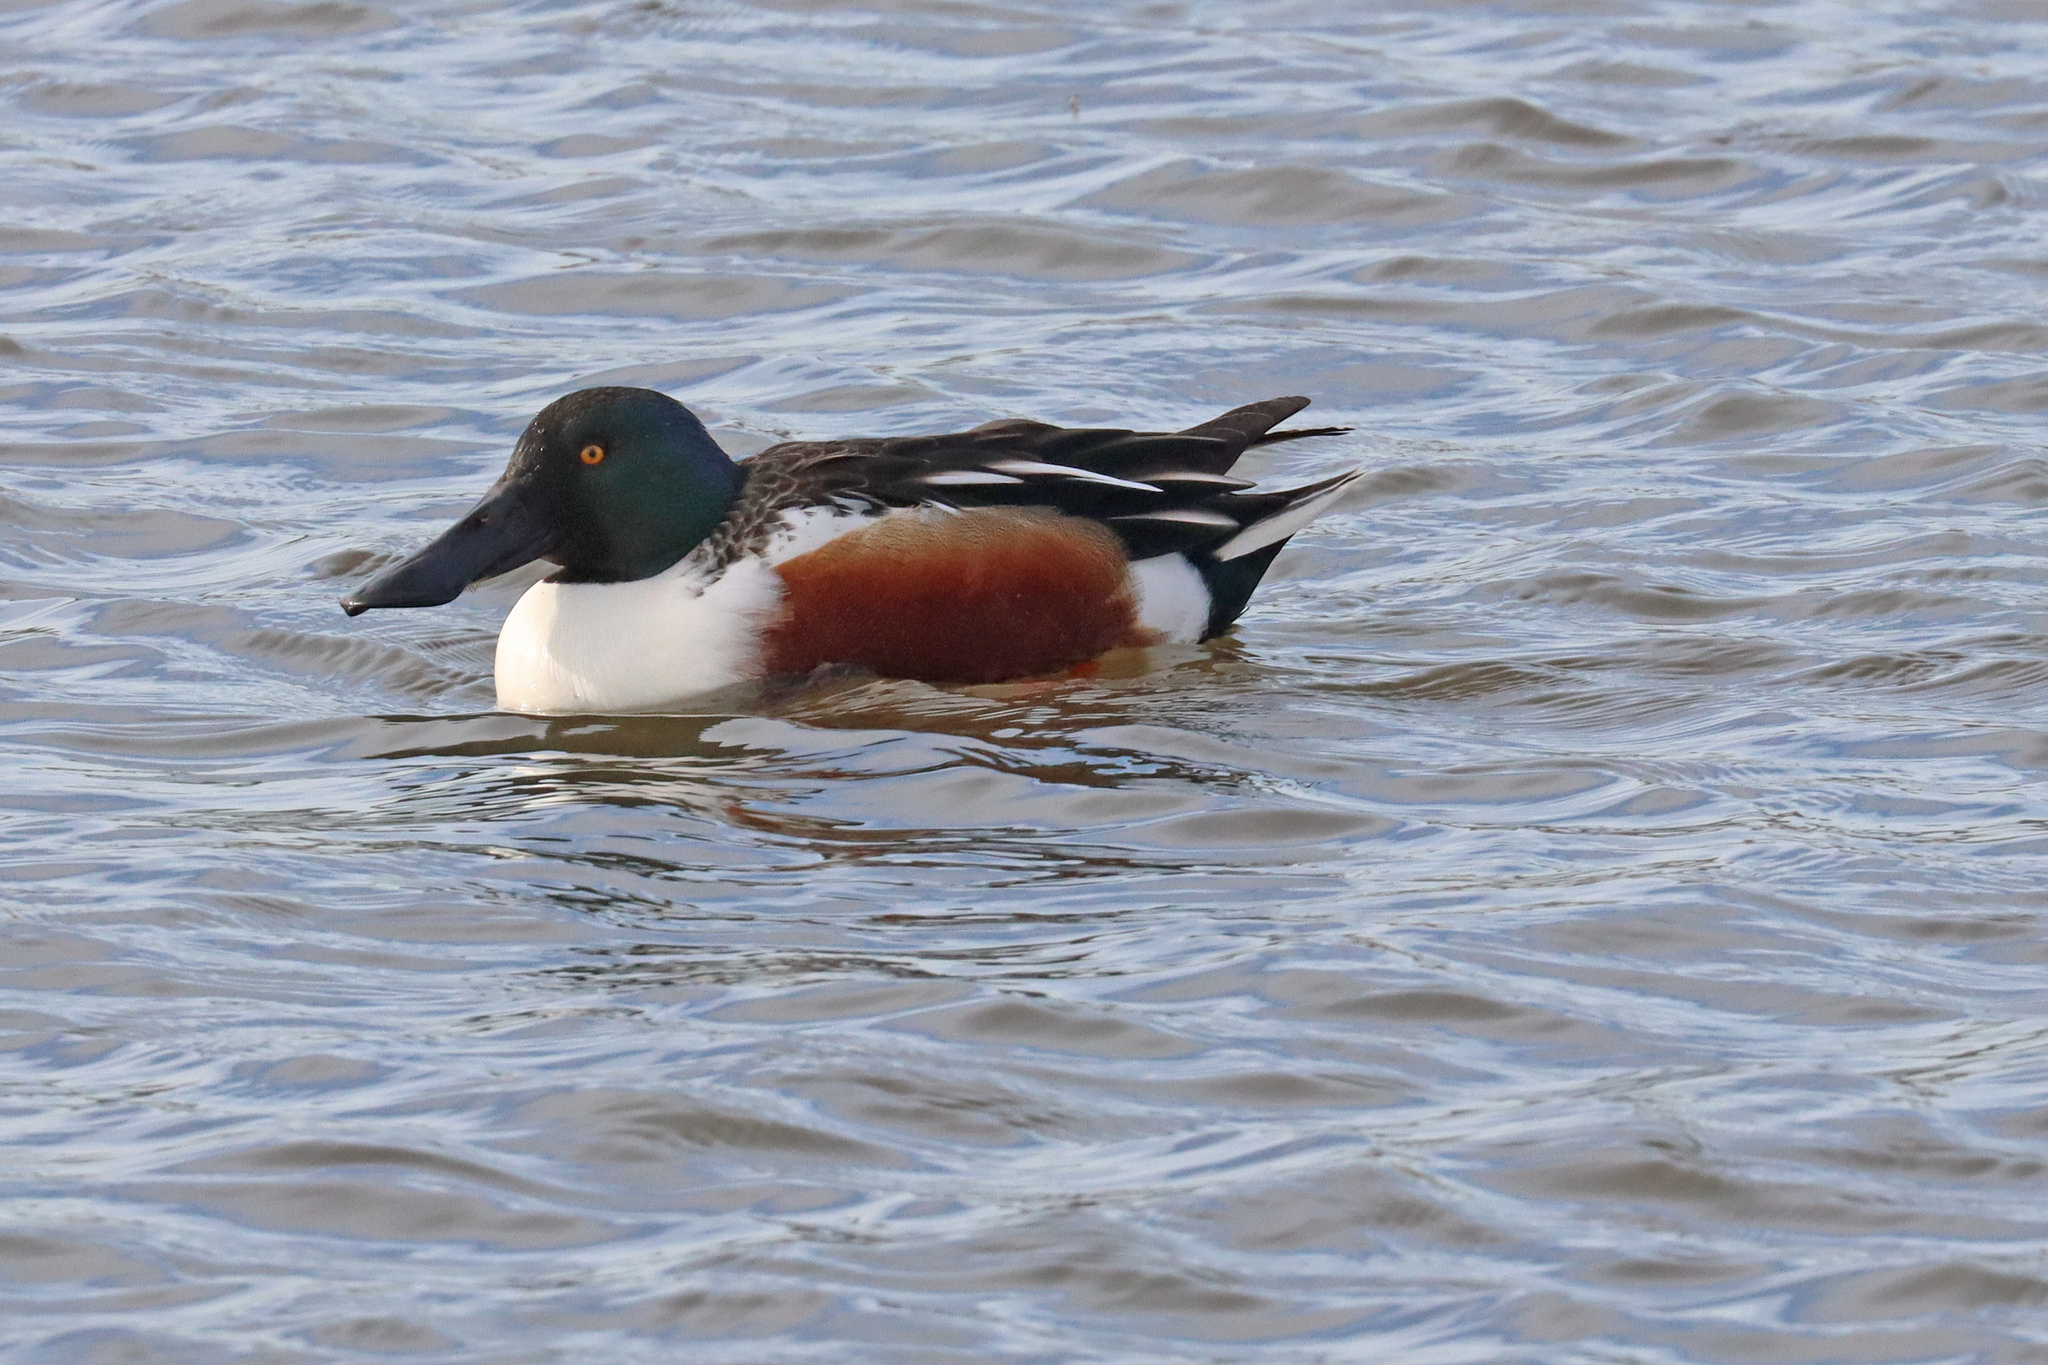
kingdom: Animalia
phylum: Chordata
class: Aves
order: Anseriformes
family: Anatidae
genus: Spatula
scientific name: Spatula clypeata
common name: Northern shoveler
